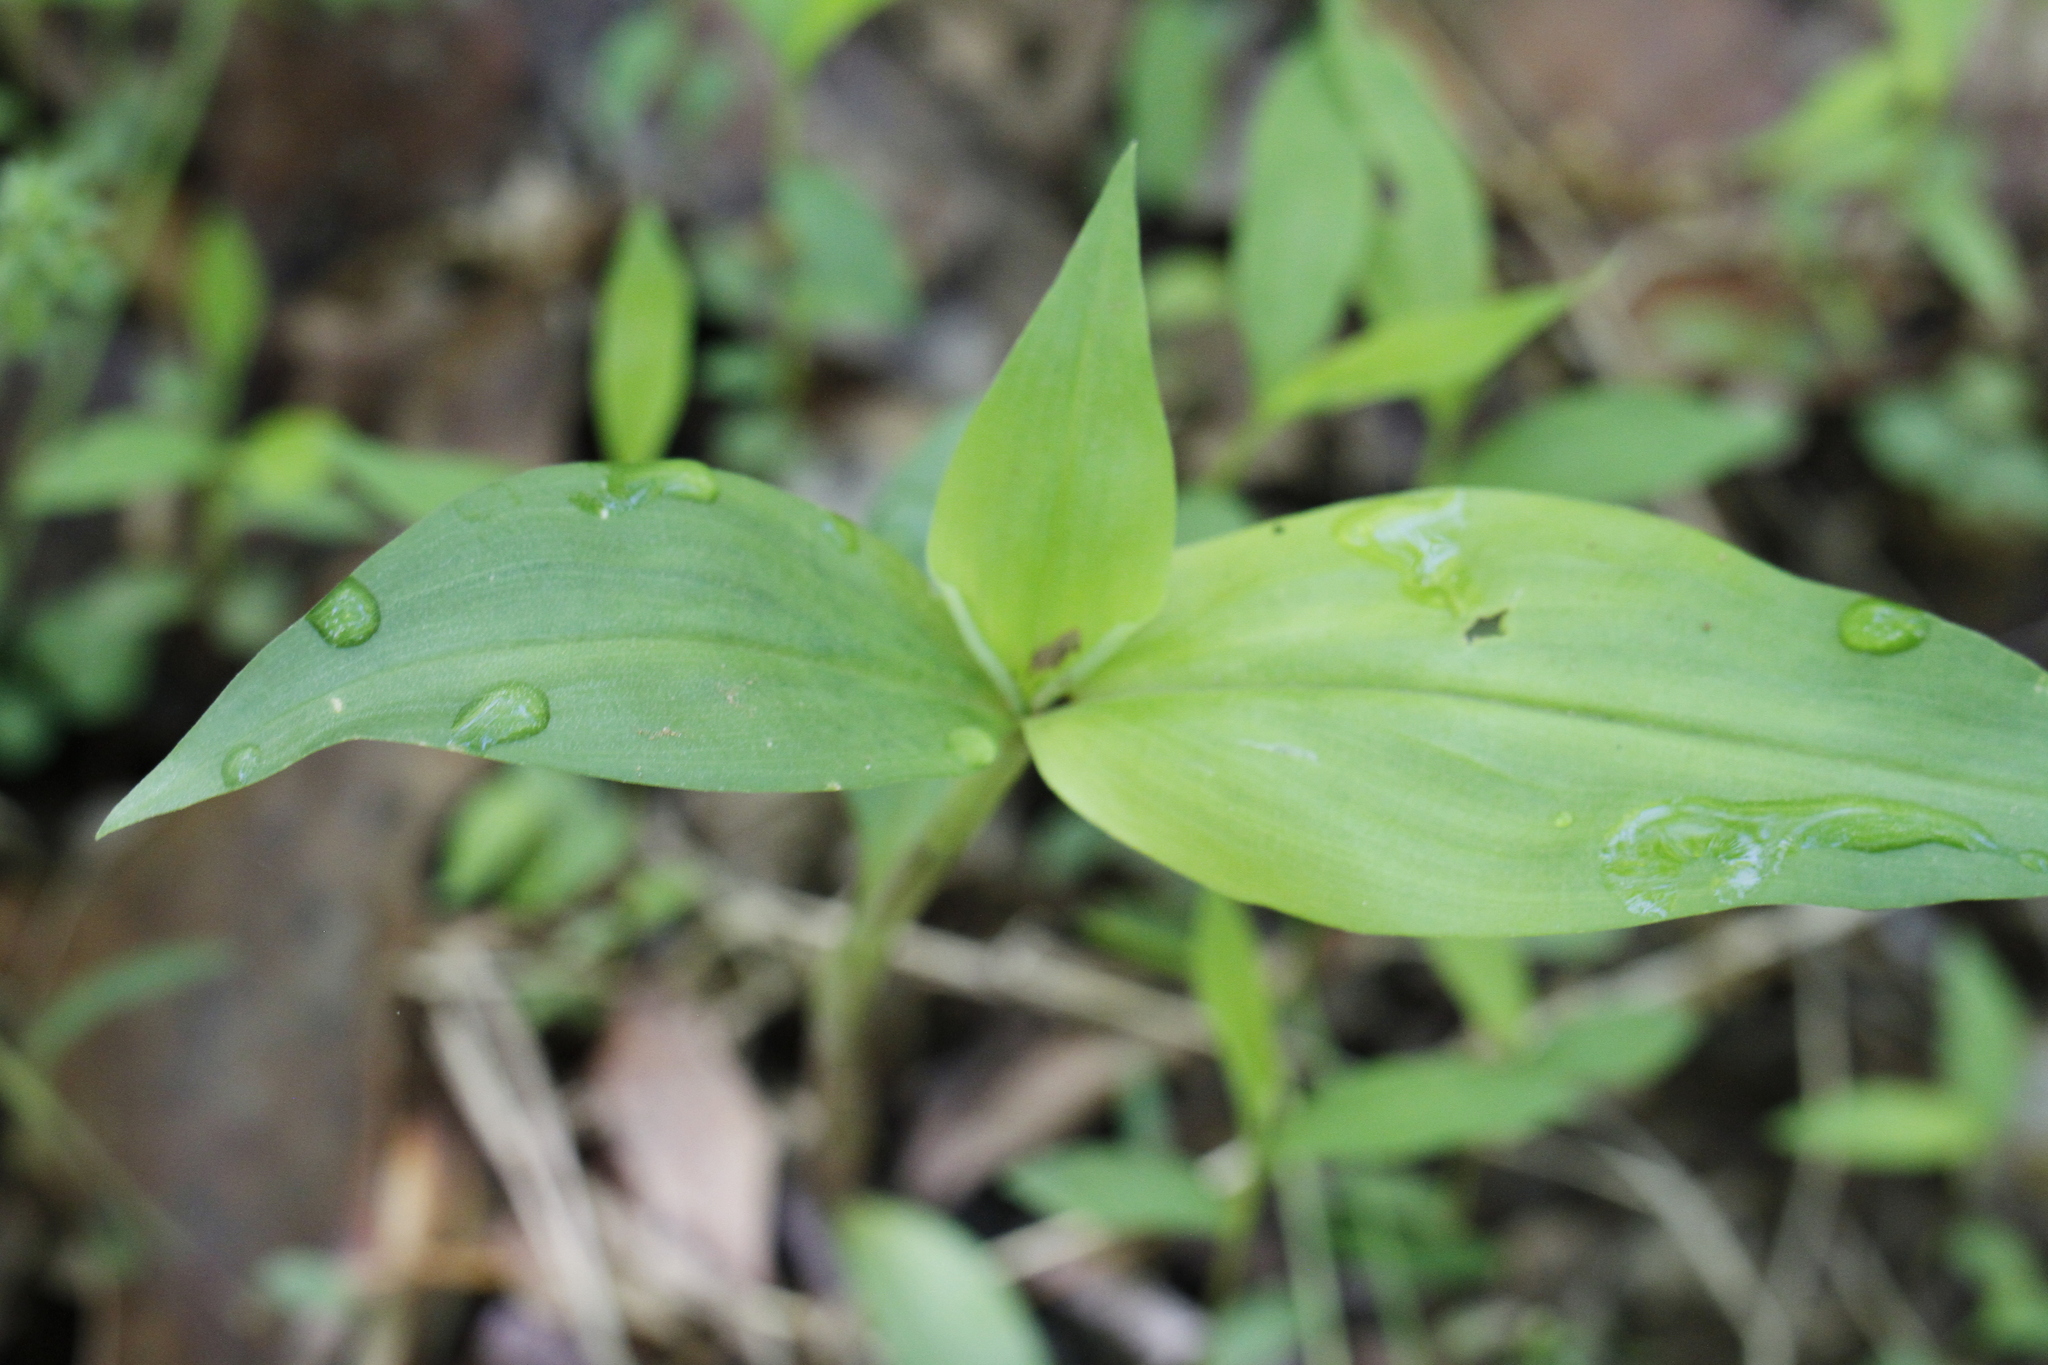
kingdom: Plantae
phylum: Tracheophyta
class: Liliopsida
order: Commelinales
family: Commelinaceae
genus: Commelina
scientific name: Commelina communis
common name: Asiatic dayflower
